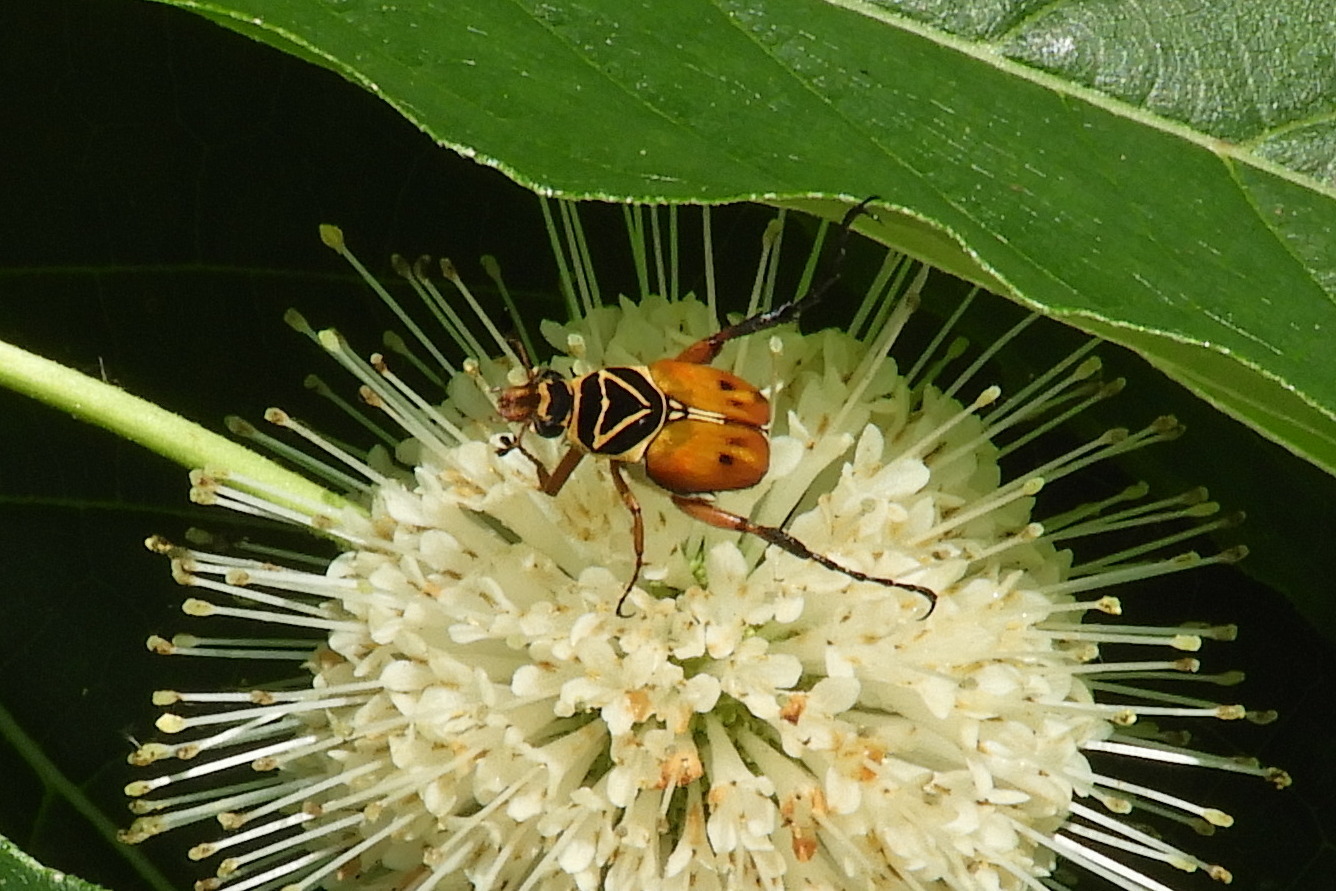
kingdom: Animalia
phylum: Arthropoda
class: Insecta
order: Coleoptera
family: Scarabaeidae
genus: Trigonopeltastes
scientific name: Trigonopeltastes delta
